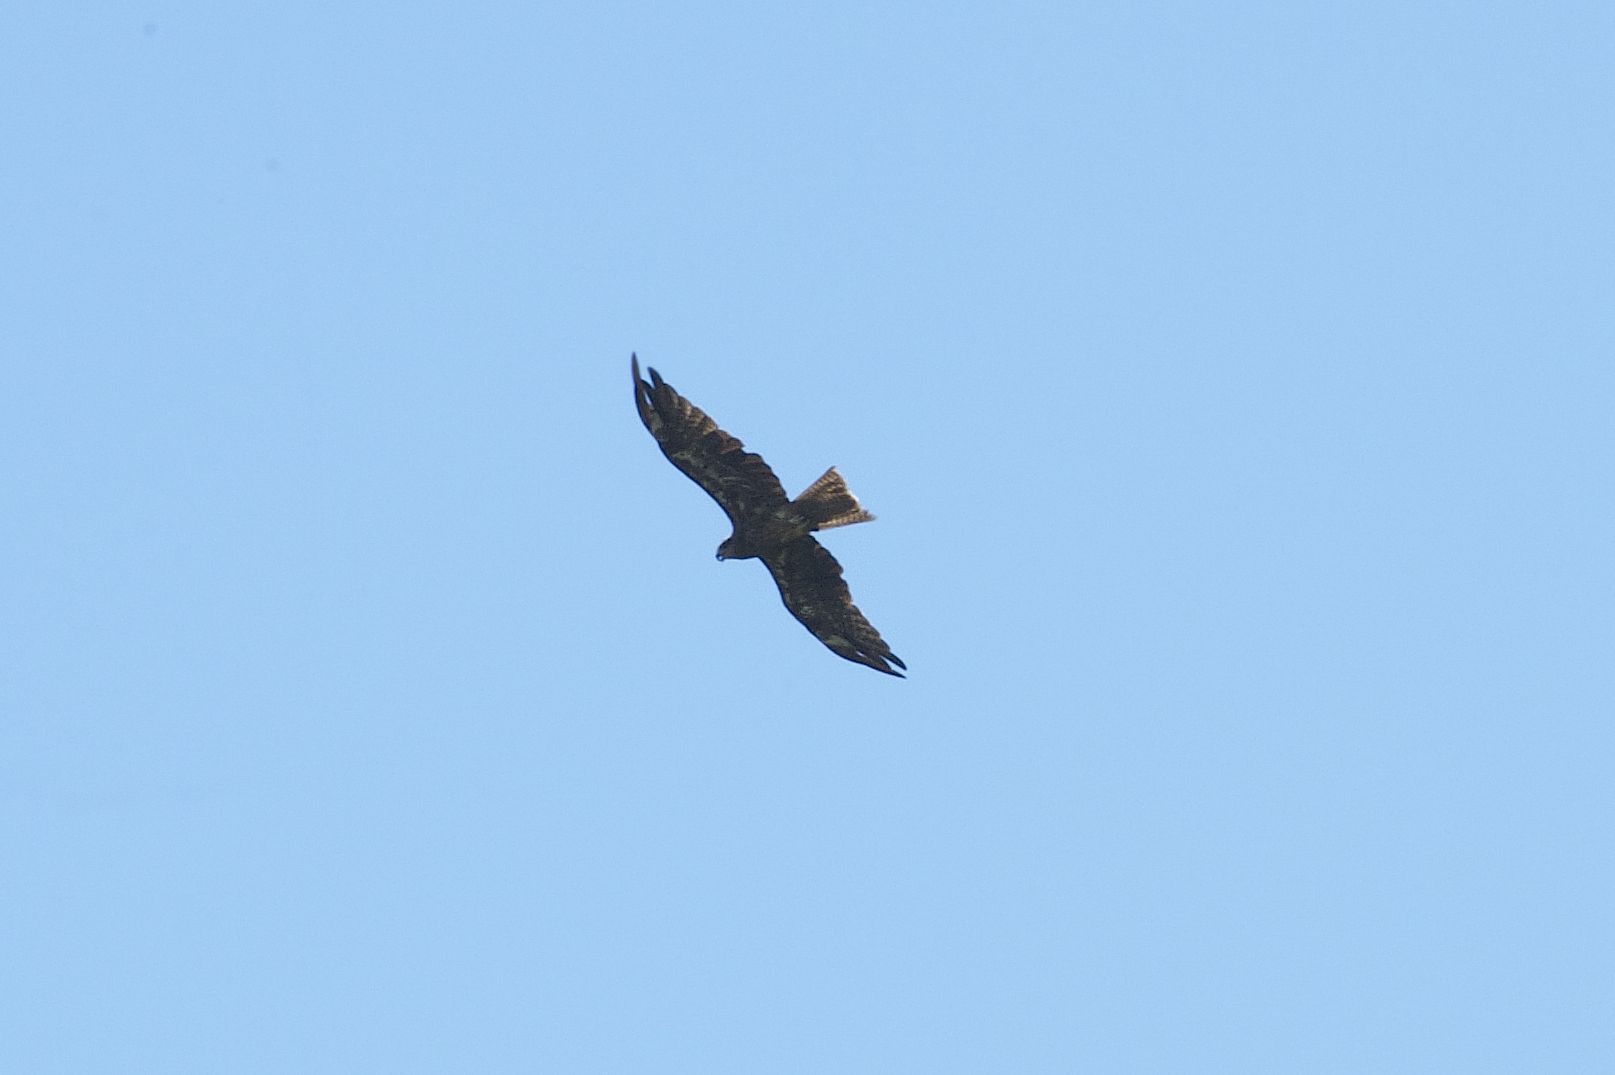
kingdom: Animalia
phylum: Chordata
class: Aves
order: Accipitriformes
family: Accipitridae
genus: Milvus
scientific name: Milvus migrans
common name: Black kite
